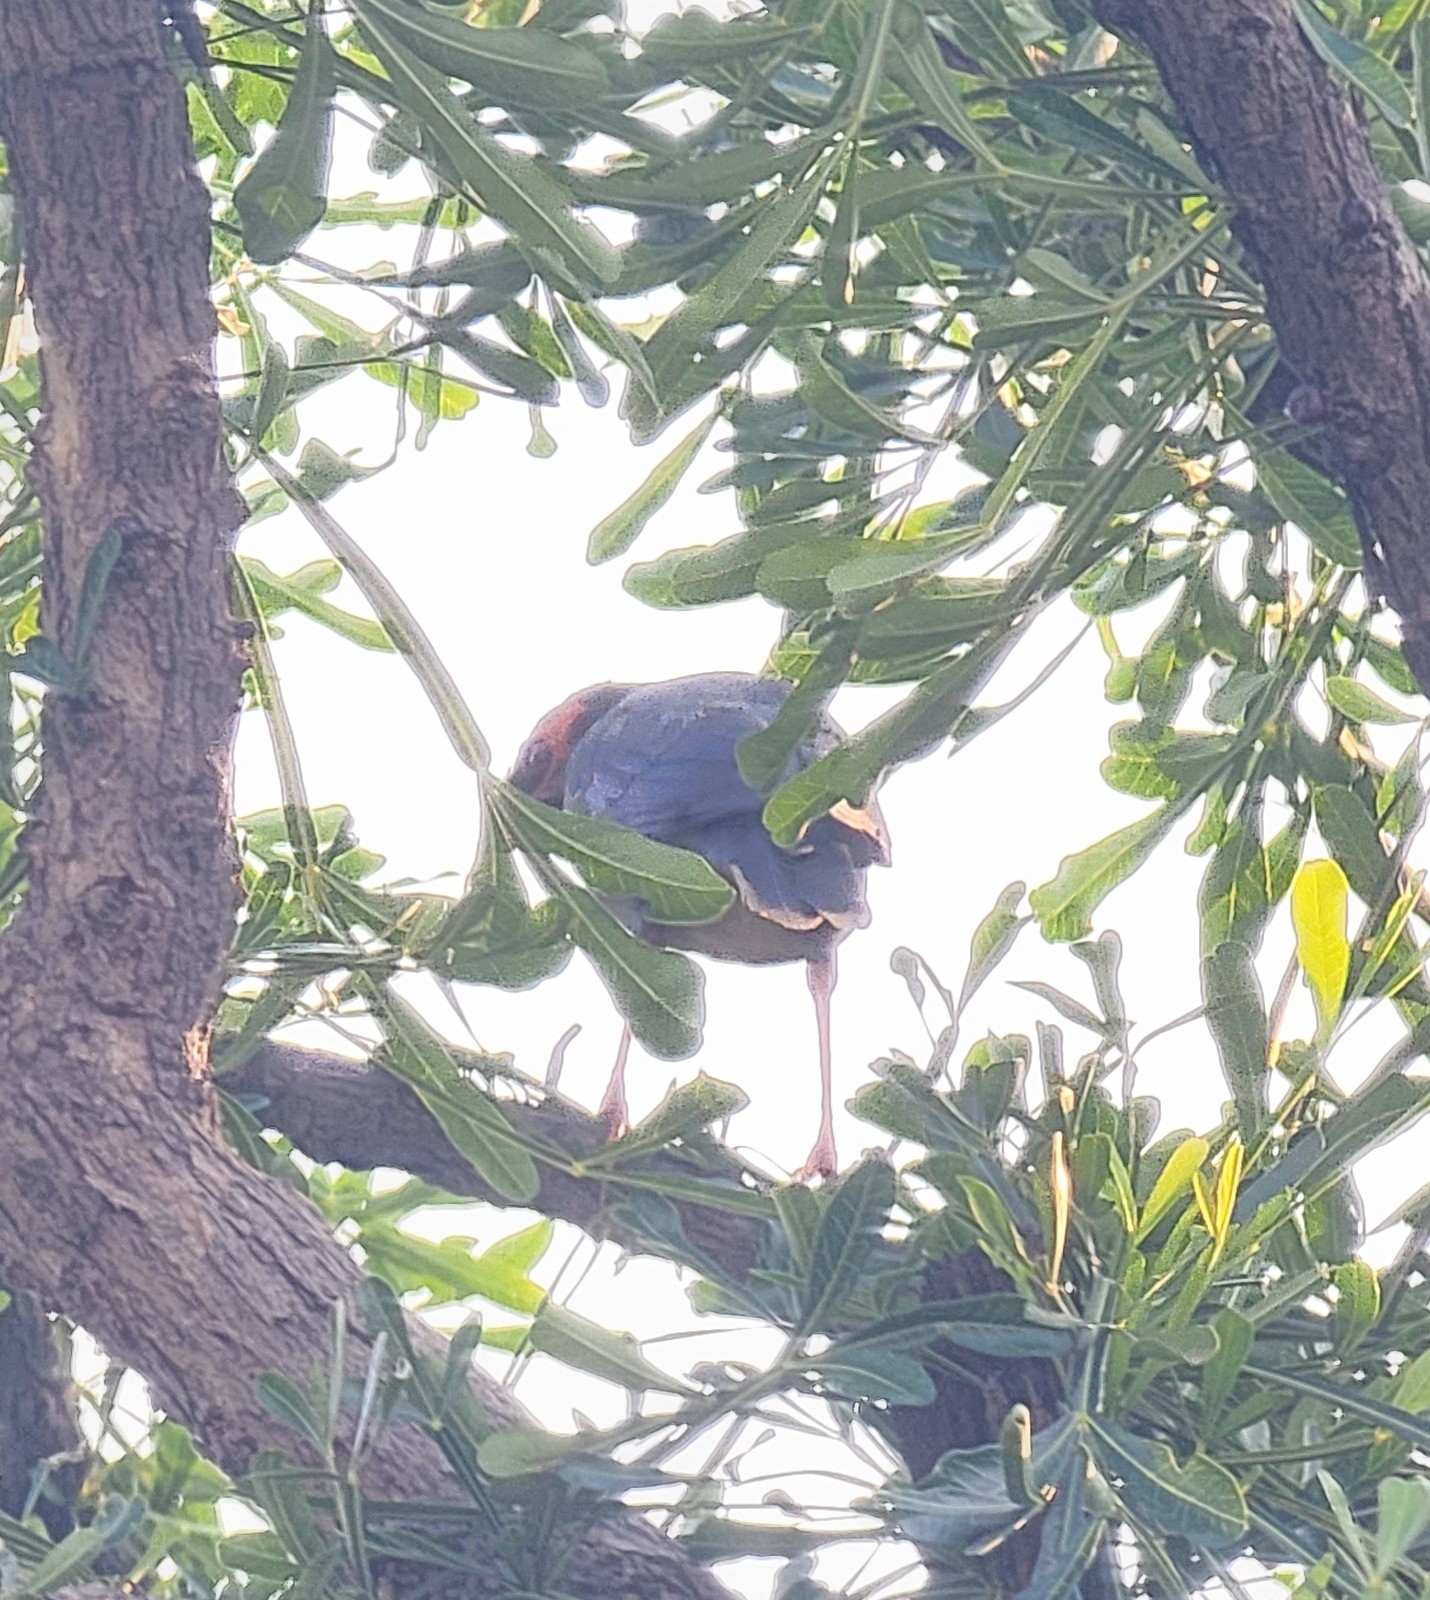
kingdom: Animalia
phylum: Chordata
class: Aves
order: Passeriformes
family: Sturnidae
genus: Acridotheres
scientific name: Acridotheres ginginianus
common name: Bank myna
